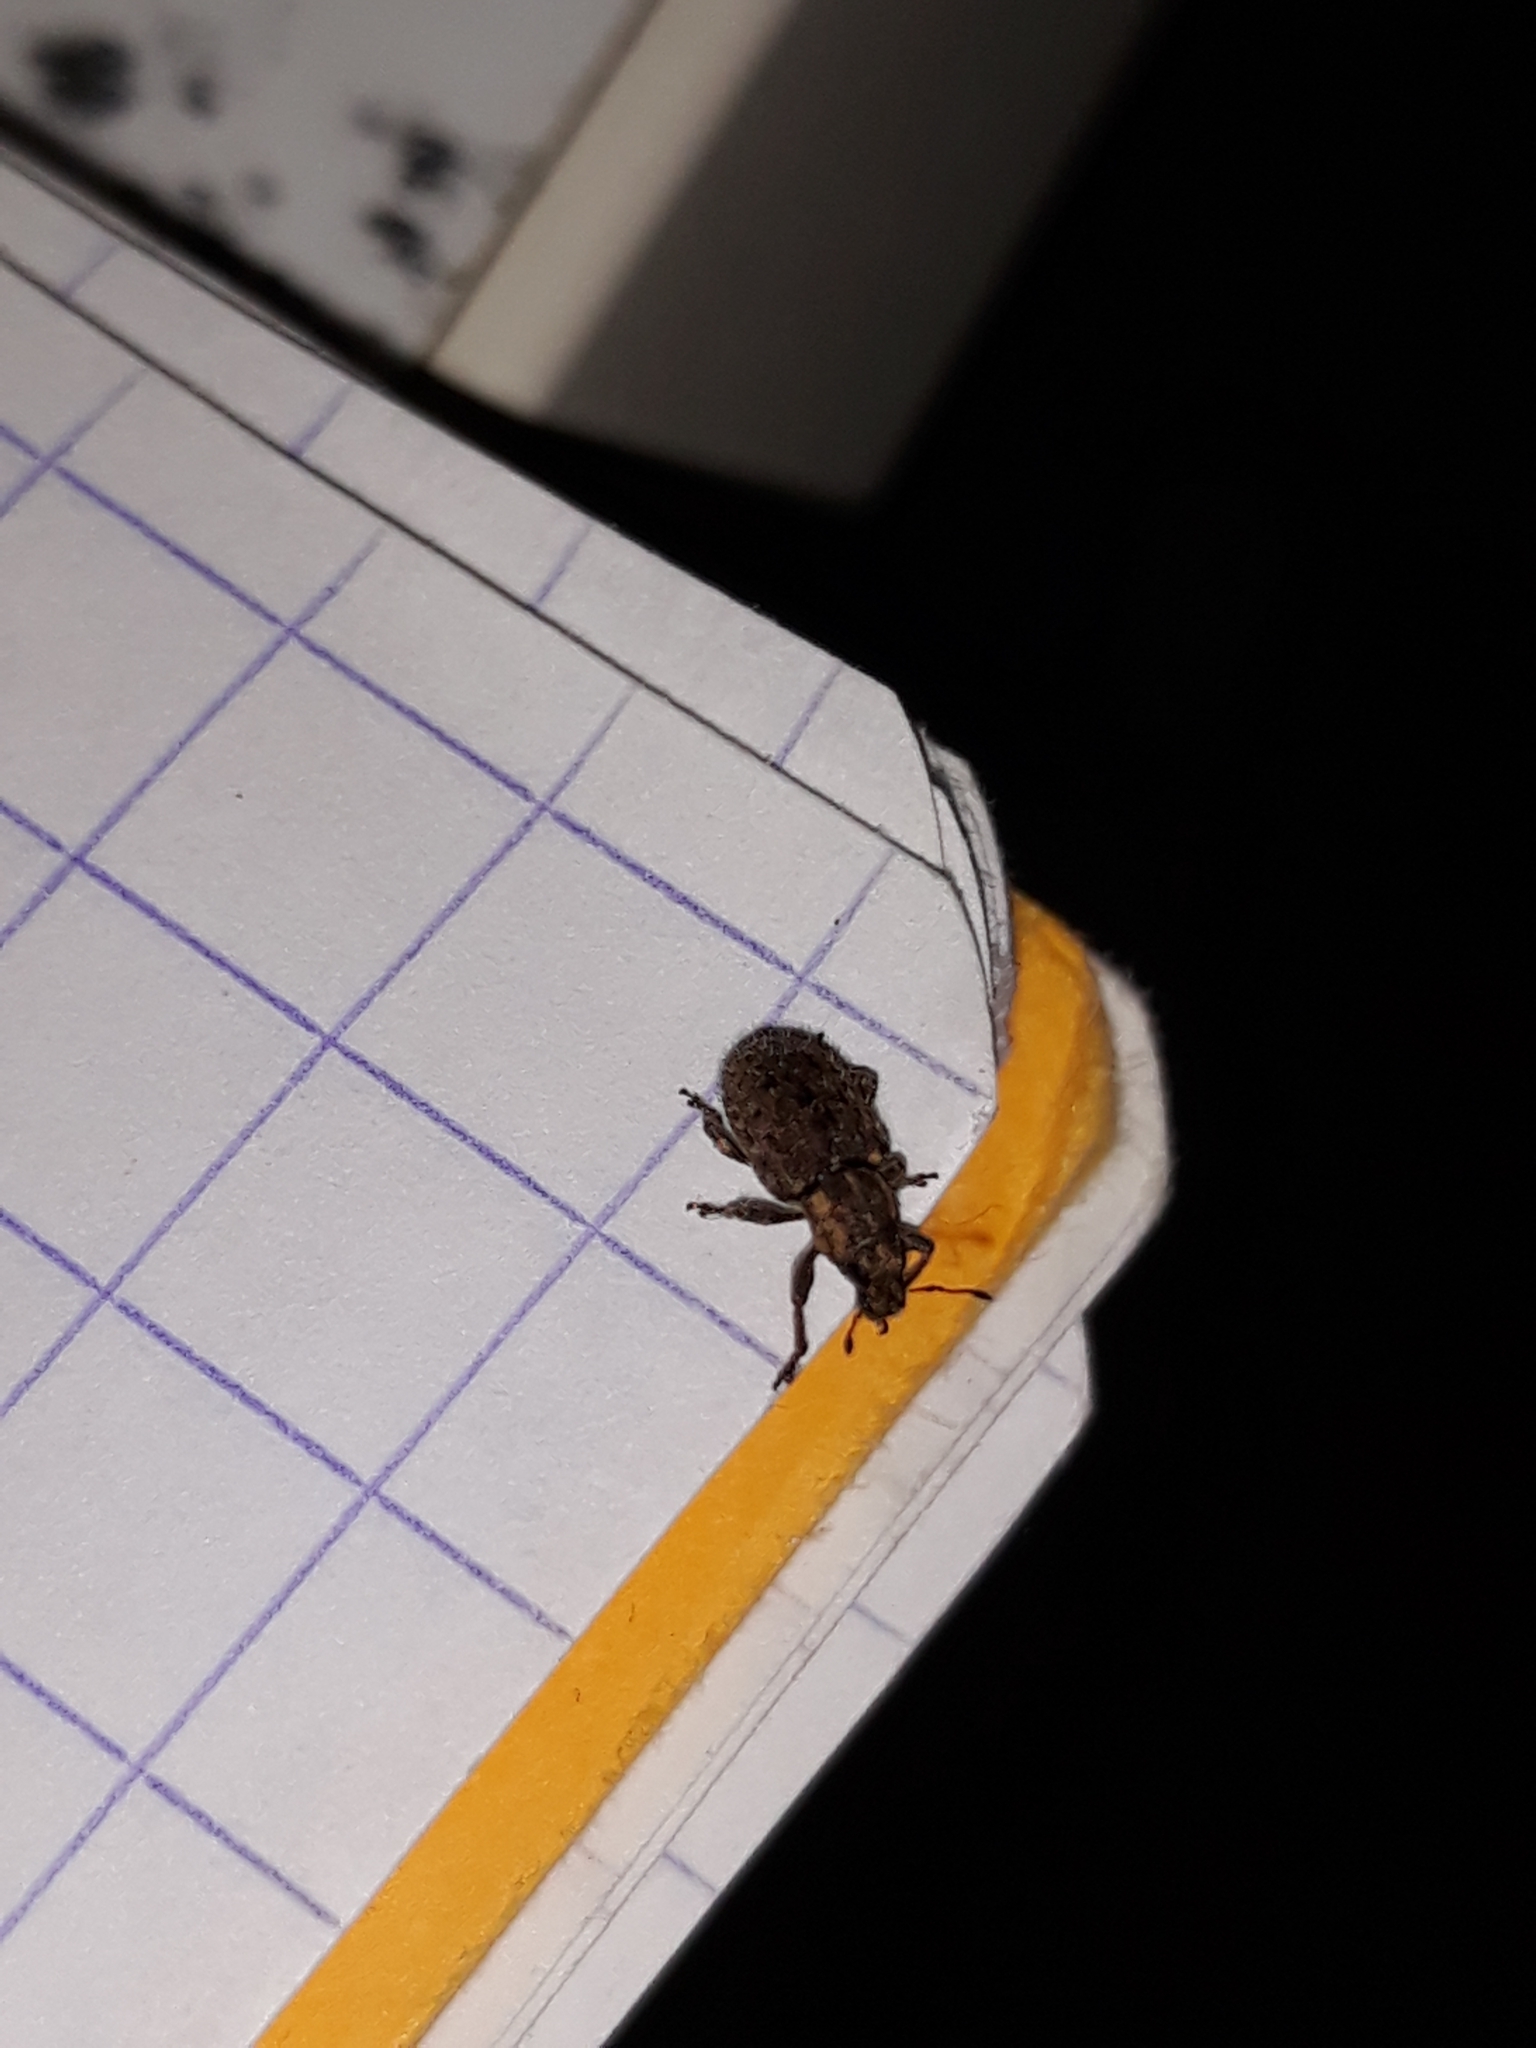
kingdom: Animalia
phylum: Arthropoda
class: Insecta
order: Coleoptera
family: Curculionidae
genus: Sitona
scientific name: Sitona hispidulus
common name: Clover weevil
